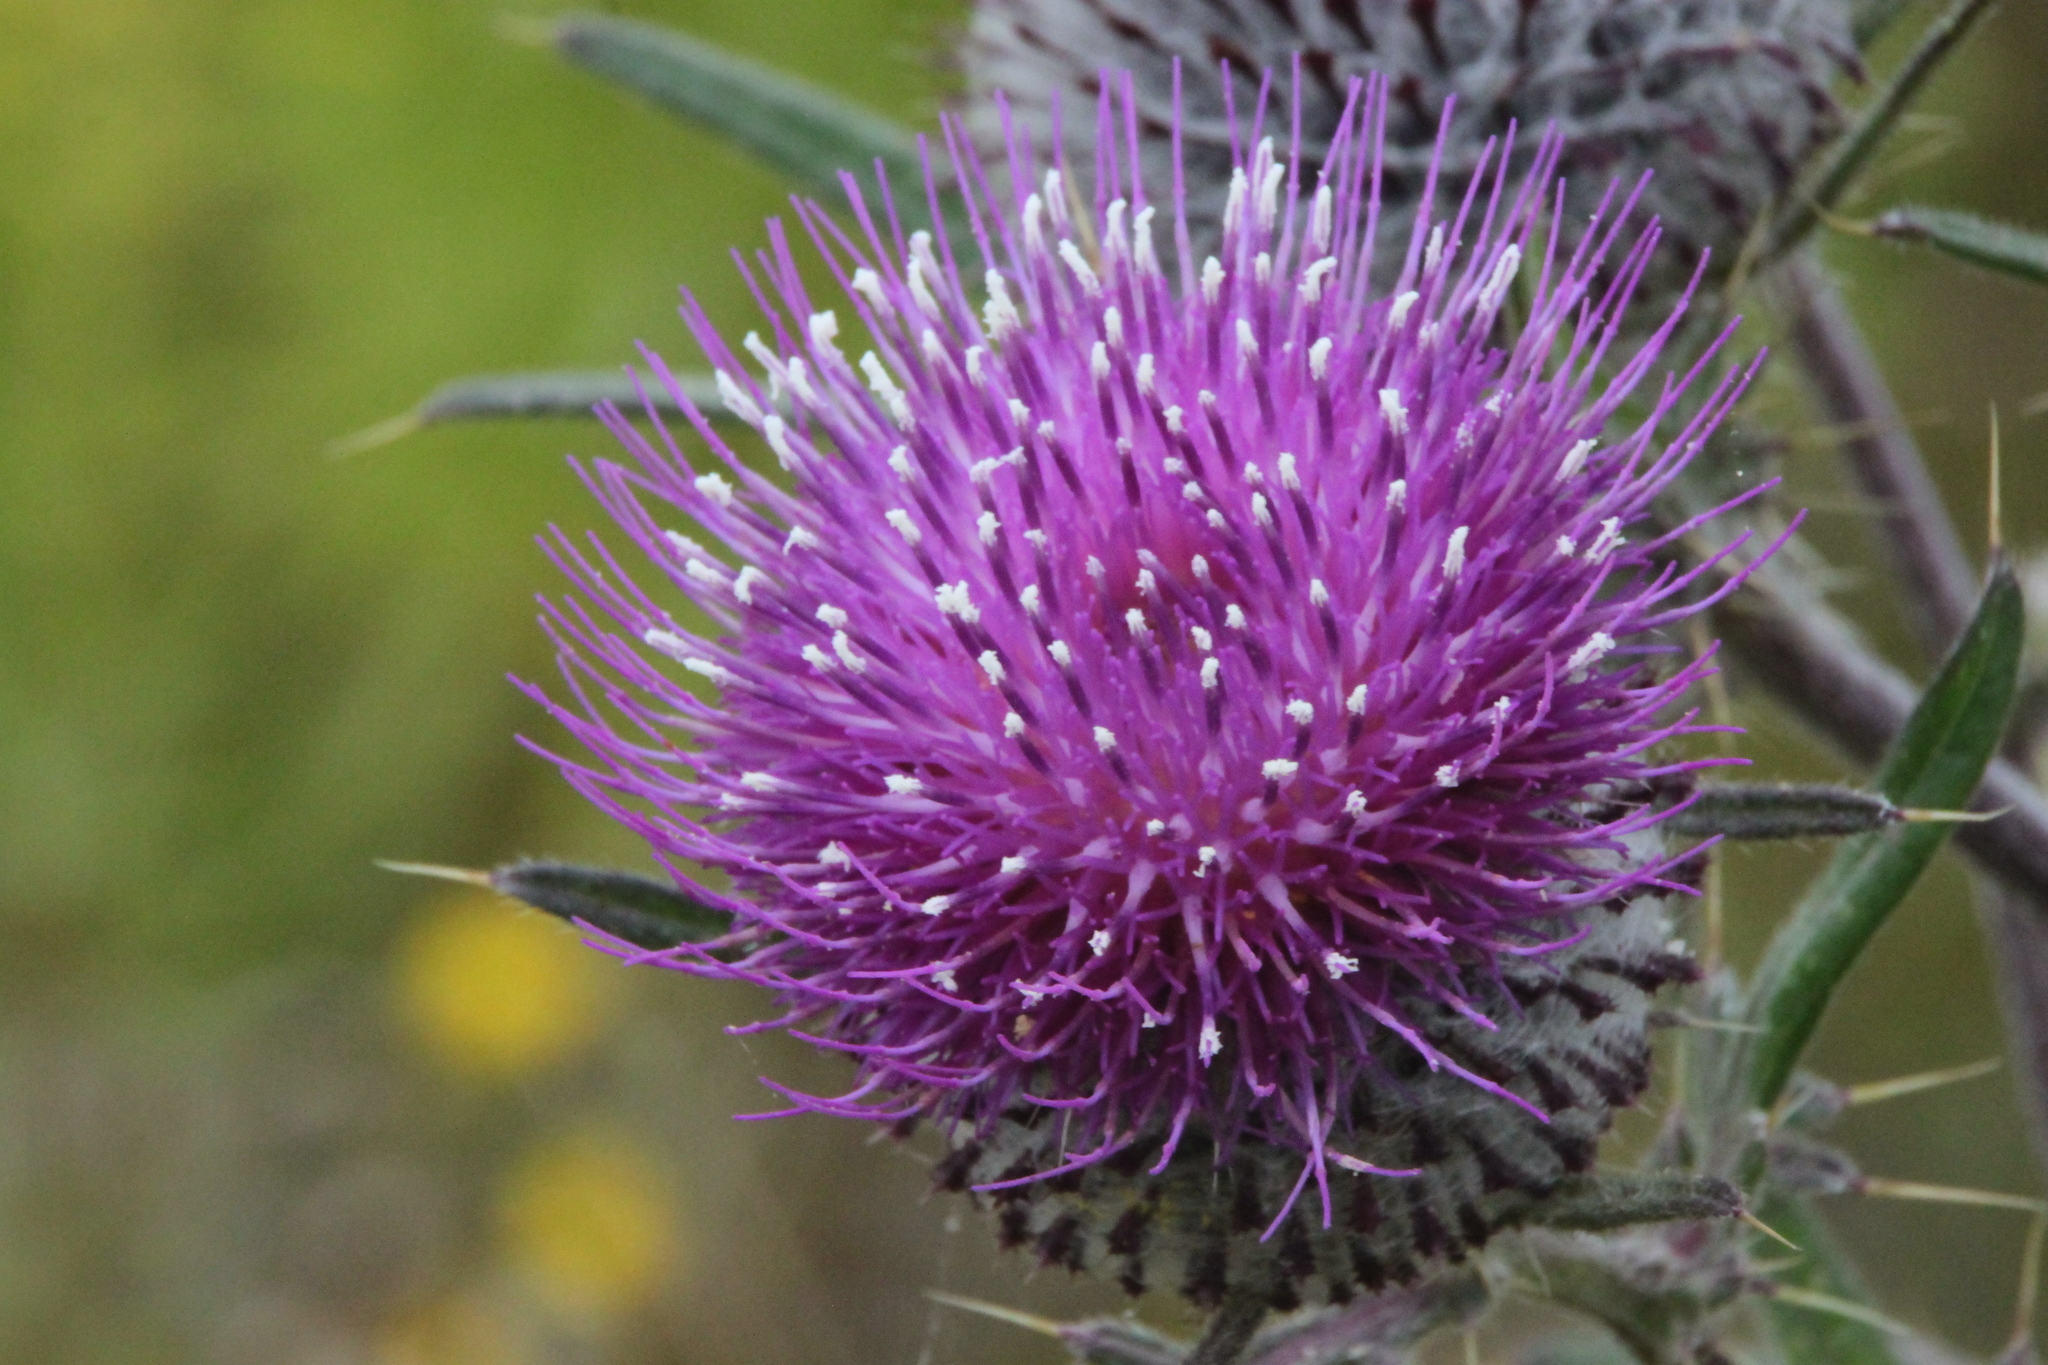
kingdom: Plantae
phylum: Tracheophyta
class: Magnoliopsida
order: Asterales
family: Asteraceae
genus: Lophiolepis
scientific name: Lophiolepis decussata
